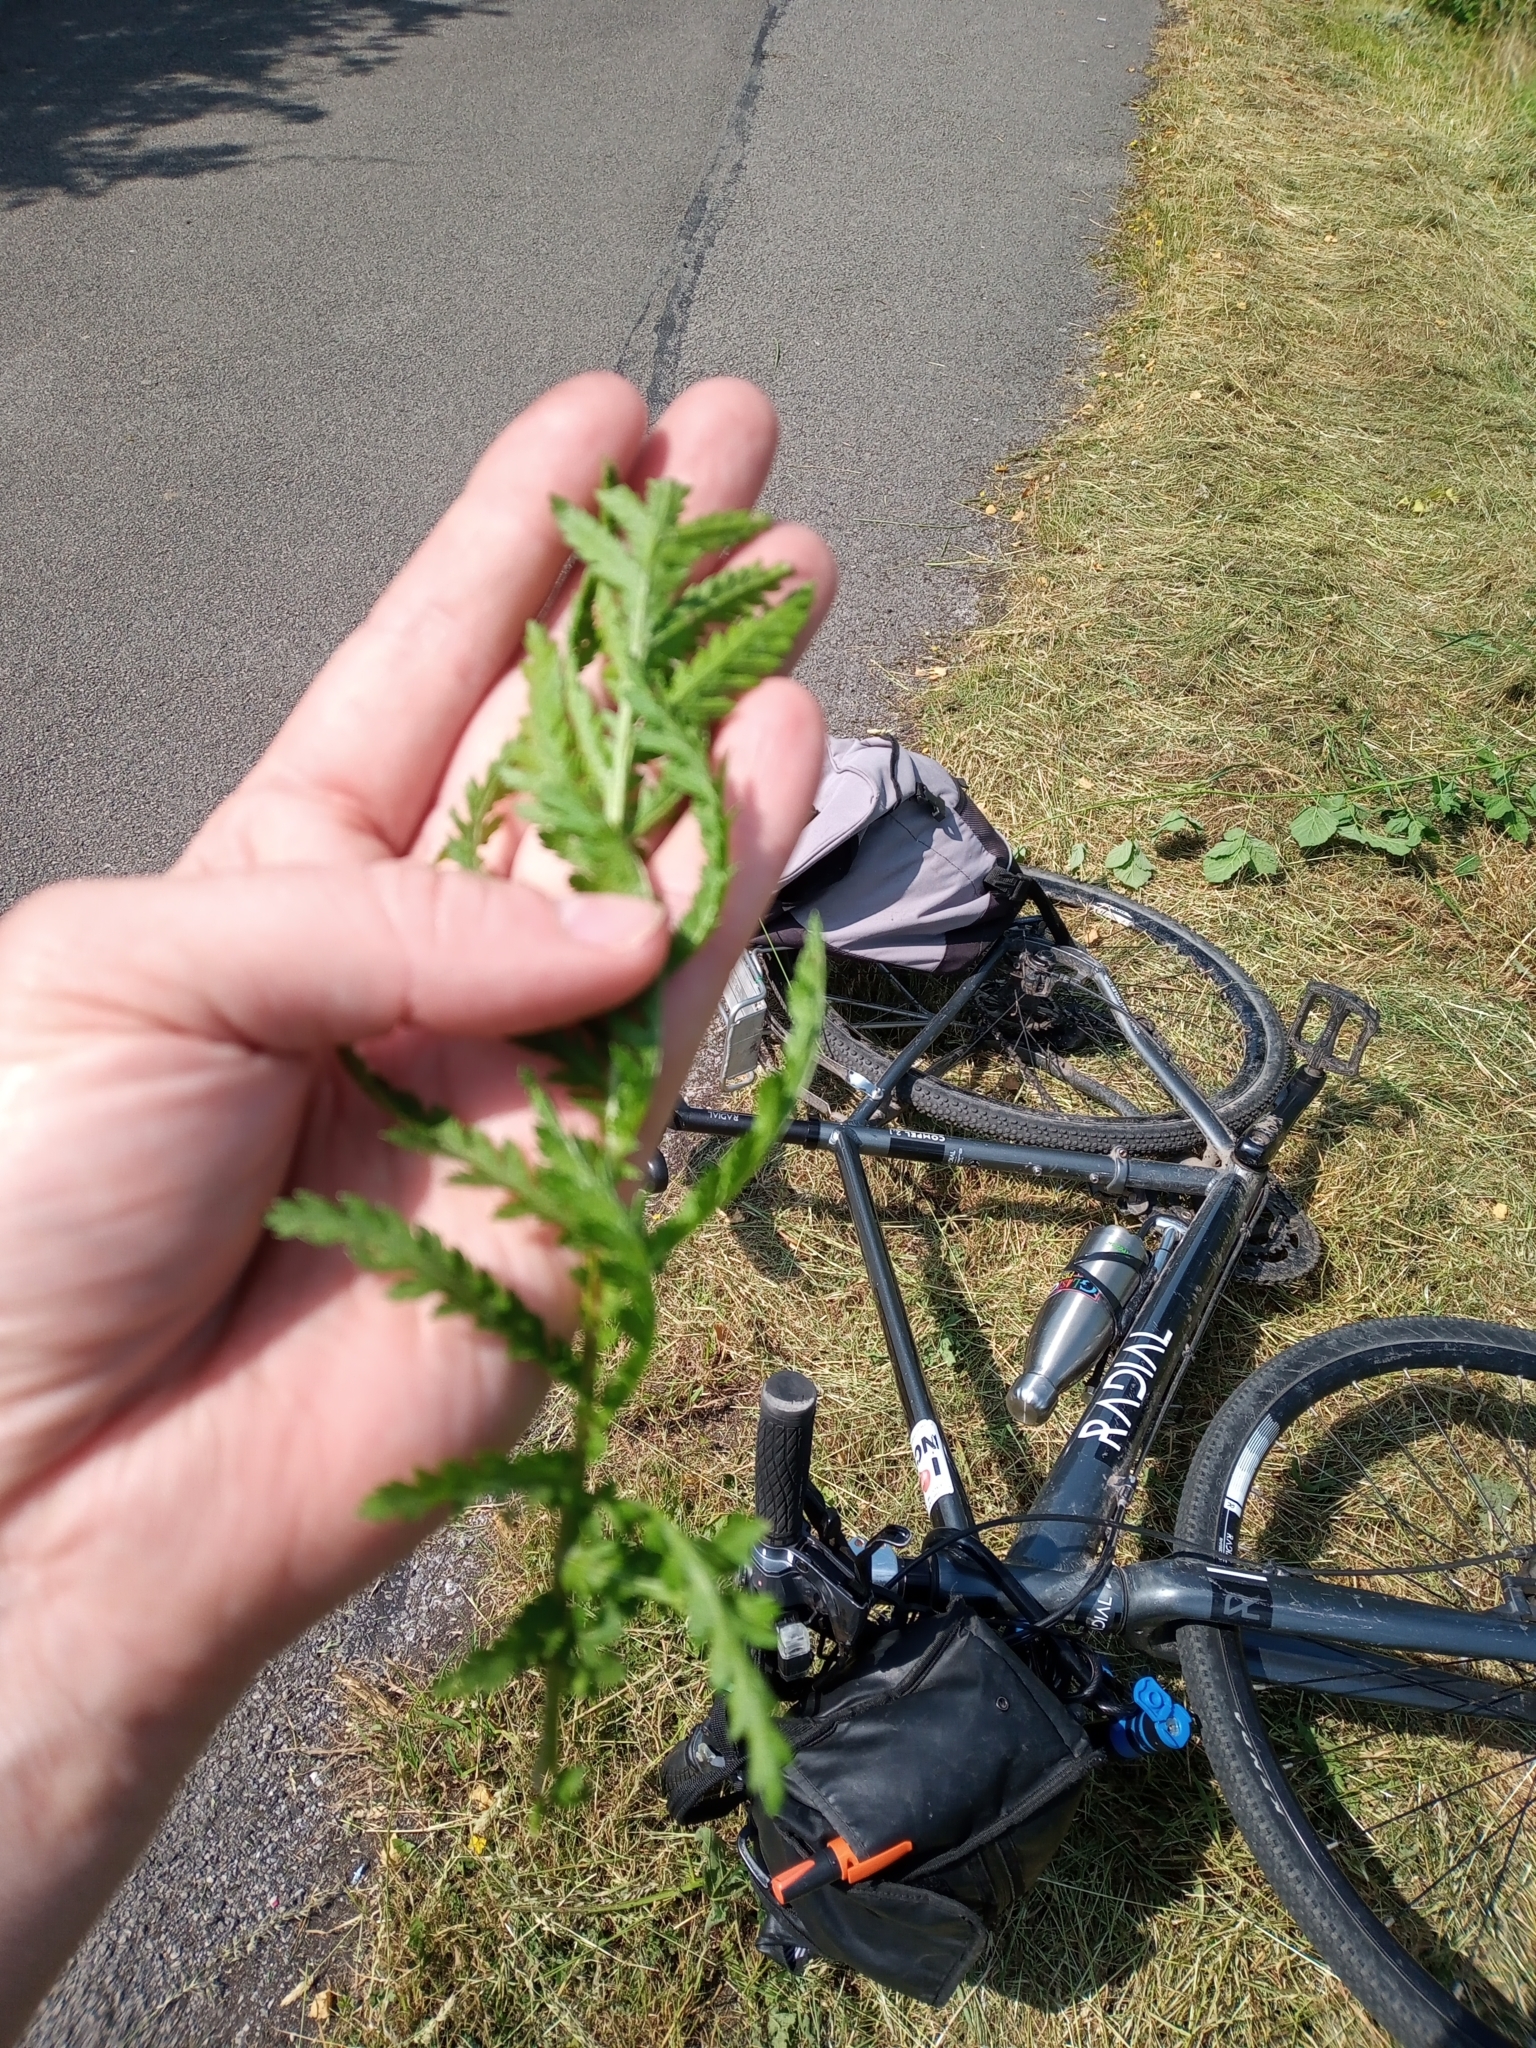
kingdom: Plantae
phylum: Tracheophyta
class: Magnoliopsida
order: Asterales
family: Asteraceae
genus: Tanacetum
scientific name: Tanacetum vulgare
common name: Common tansy
